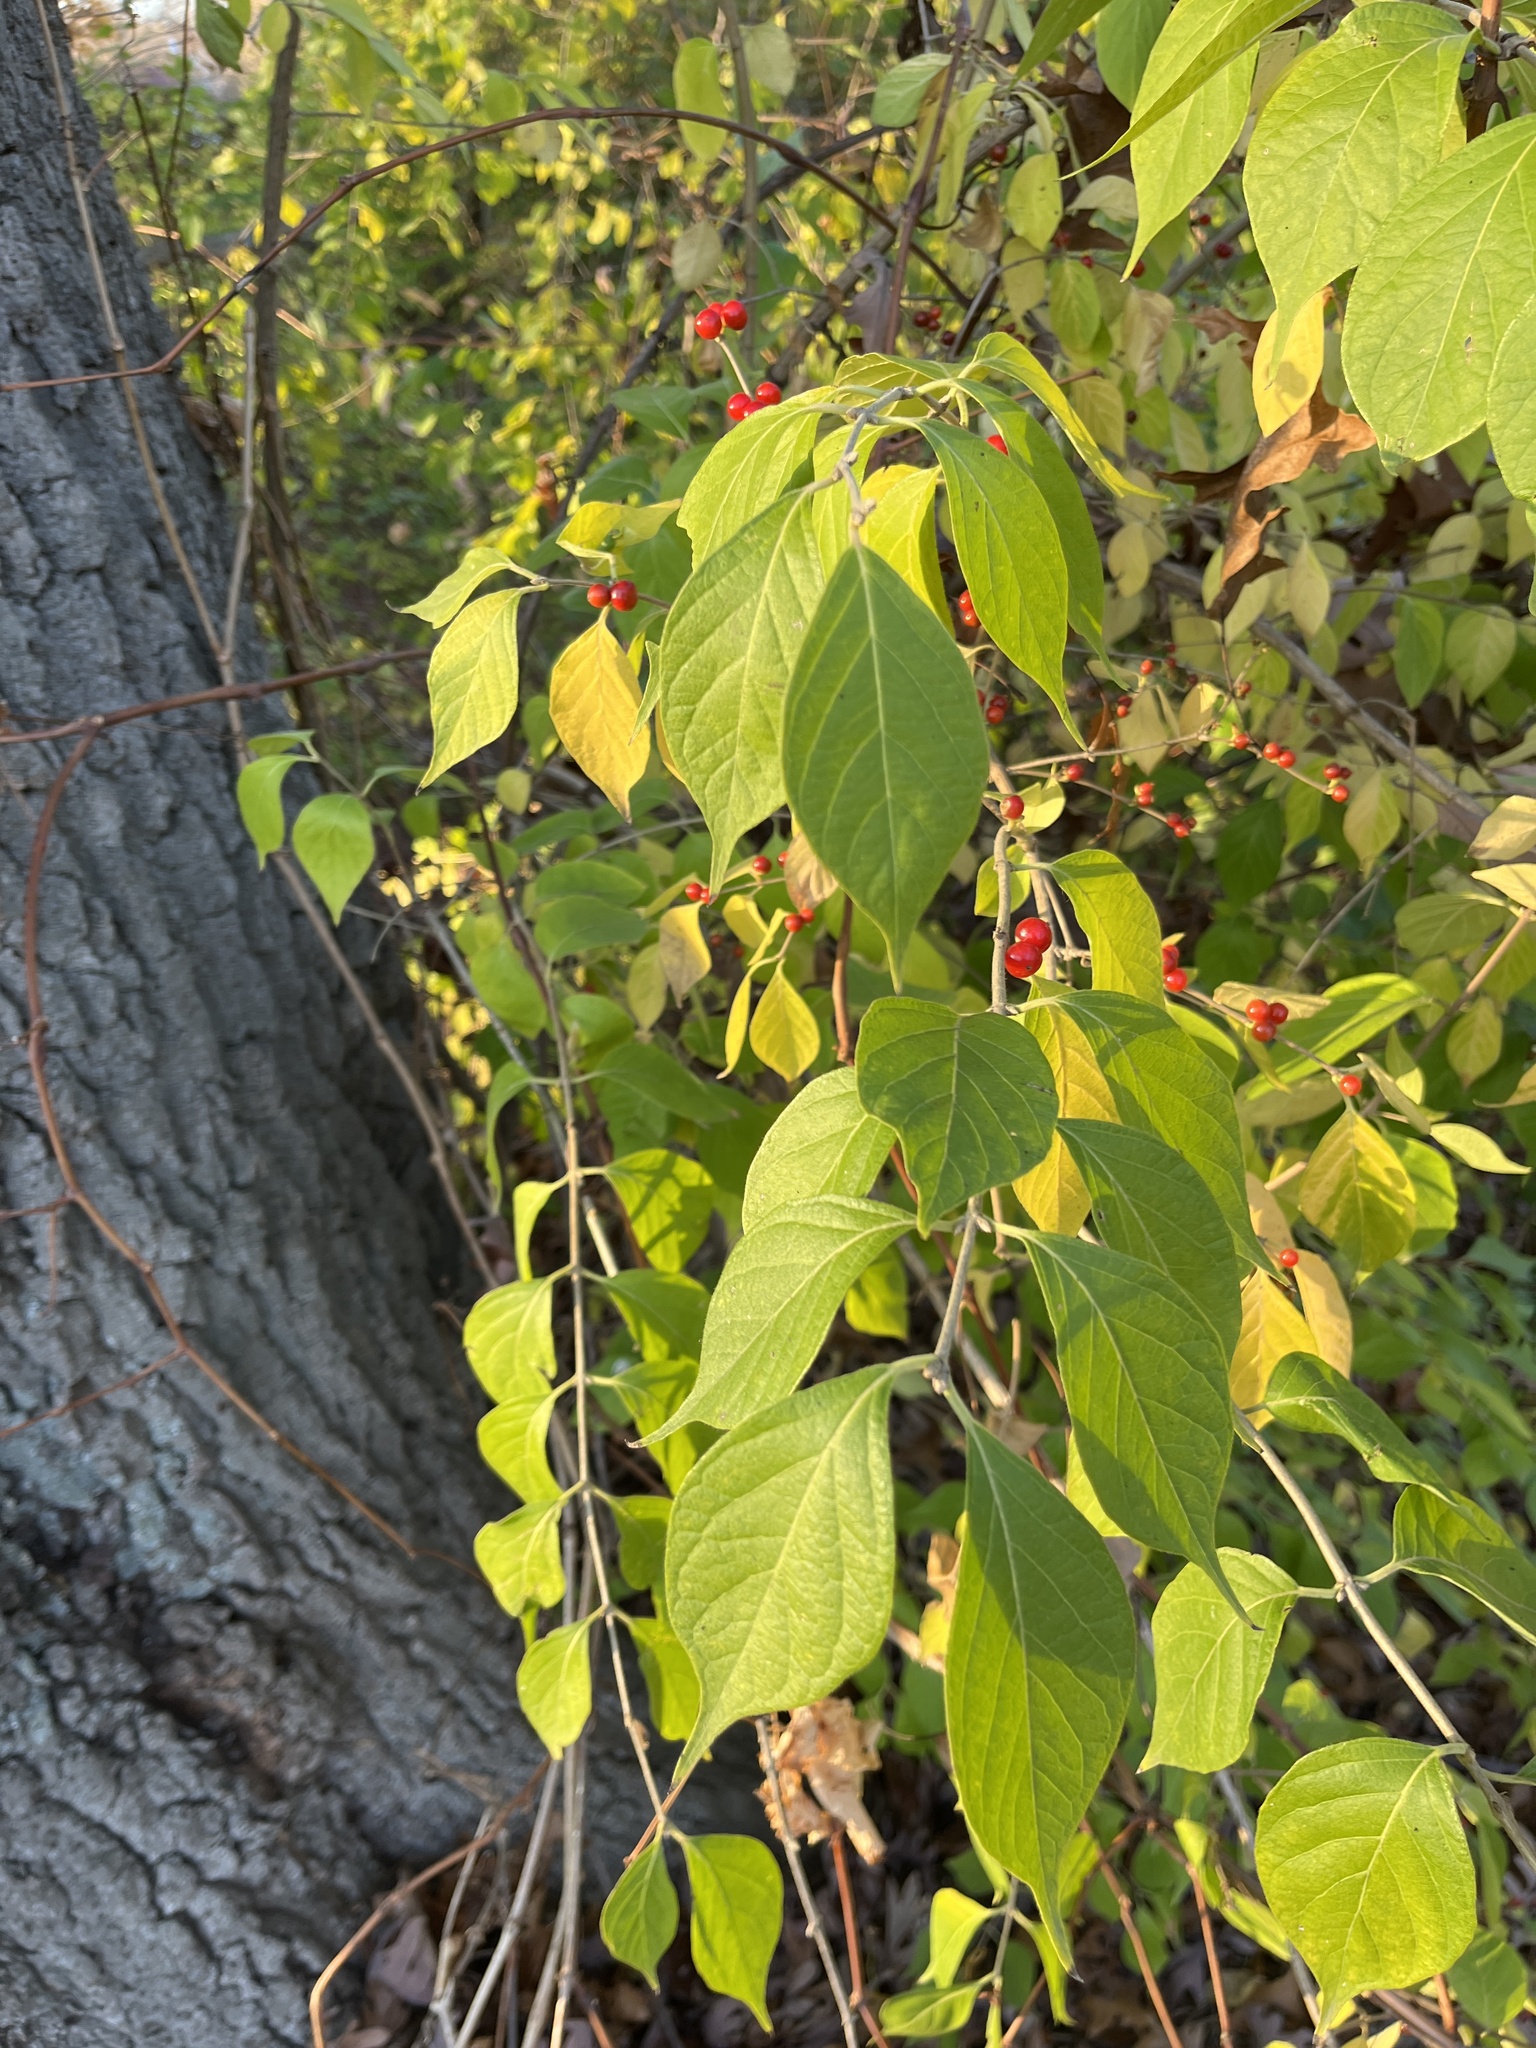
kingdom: Plantae
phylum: Tracheophyta
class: Magnoliopsida
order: Dipsacales
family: Caprifoliaceae
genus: Lonicera
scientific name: Lonicera maackii
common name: Amur honeysuckle
